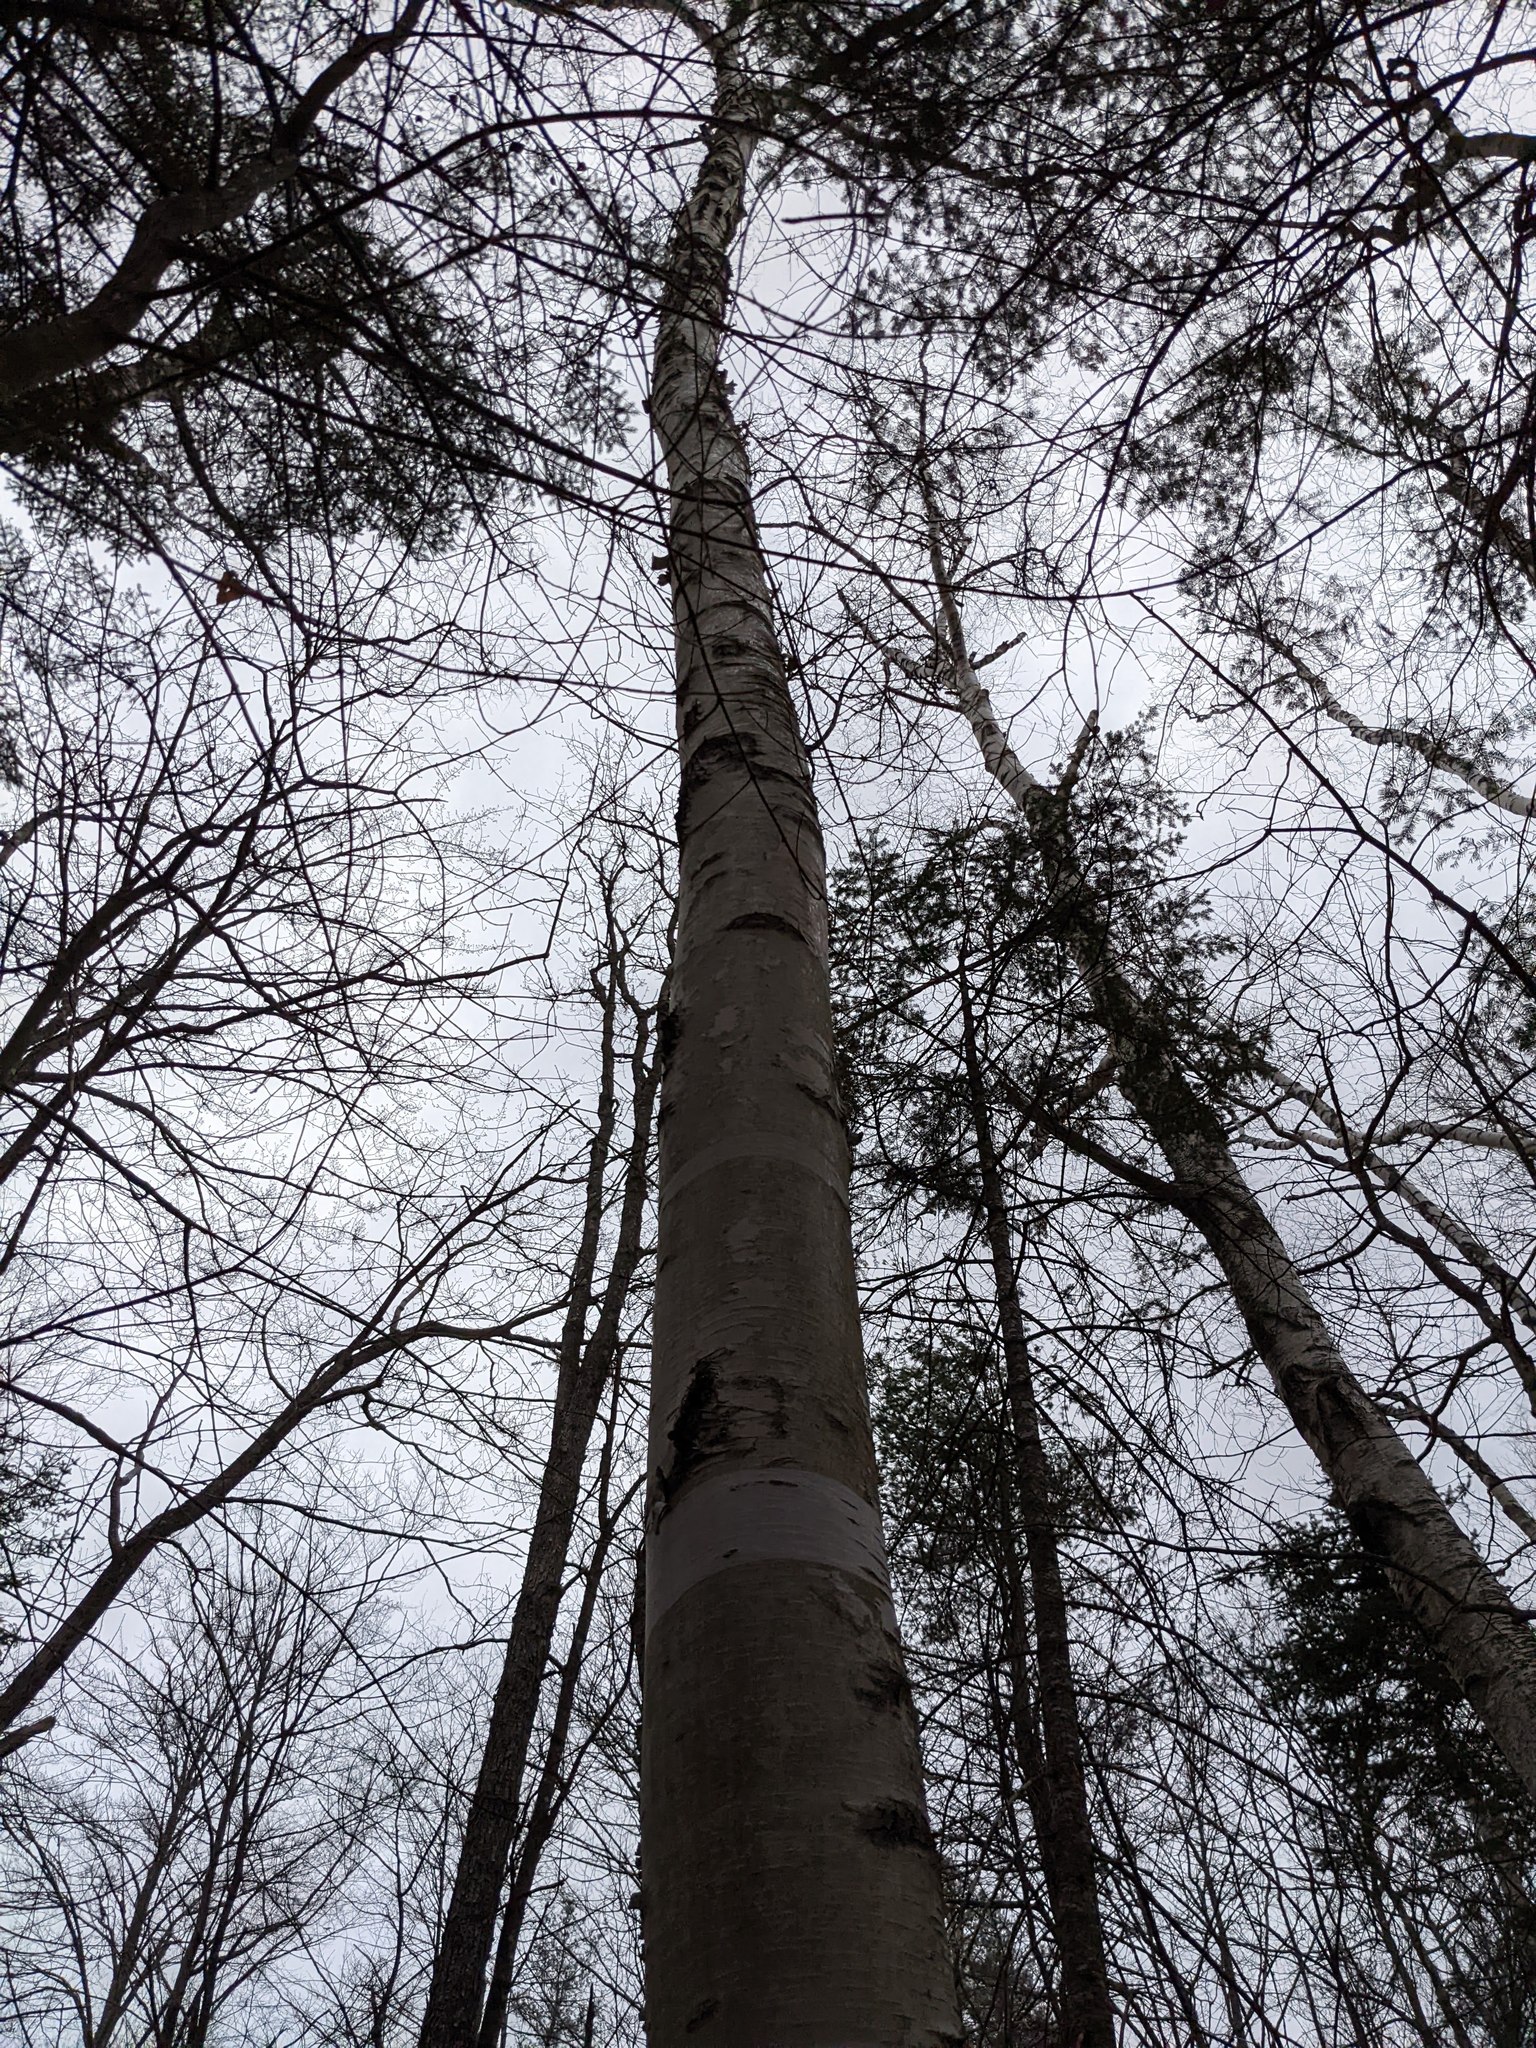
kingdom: Plantae
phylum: Tracheophyta
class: Magnoliopsida
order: Fagales
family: Betulaceae
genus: Betula
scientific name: Betula papyrifera
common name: Paper birch
